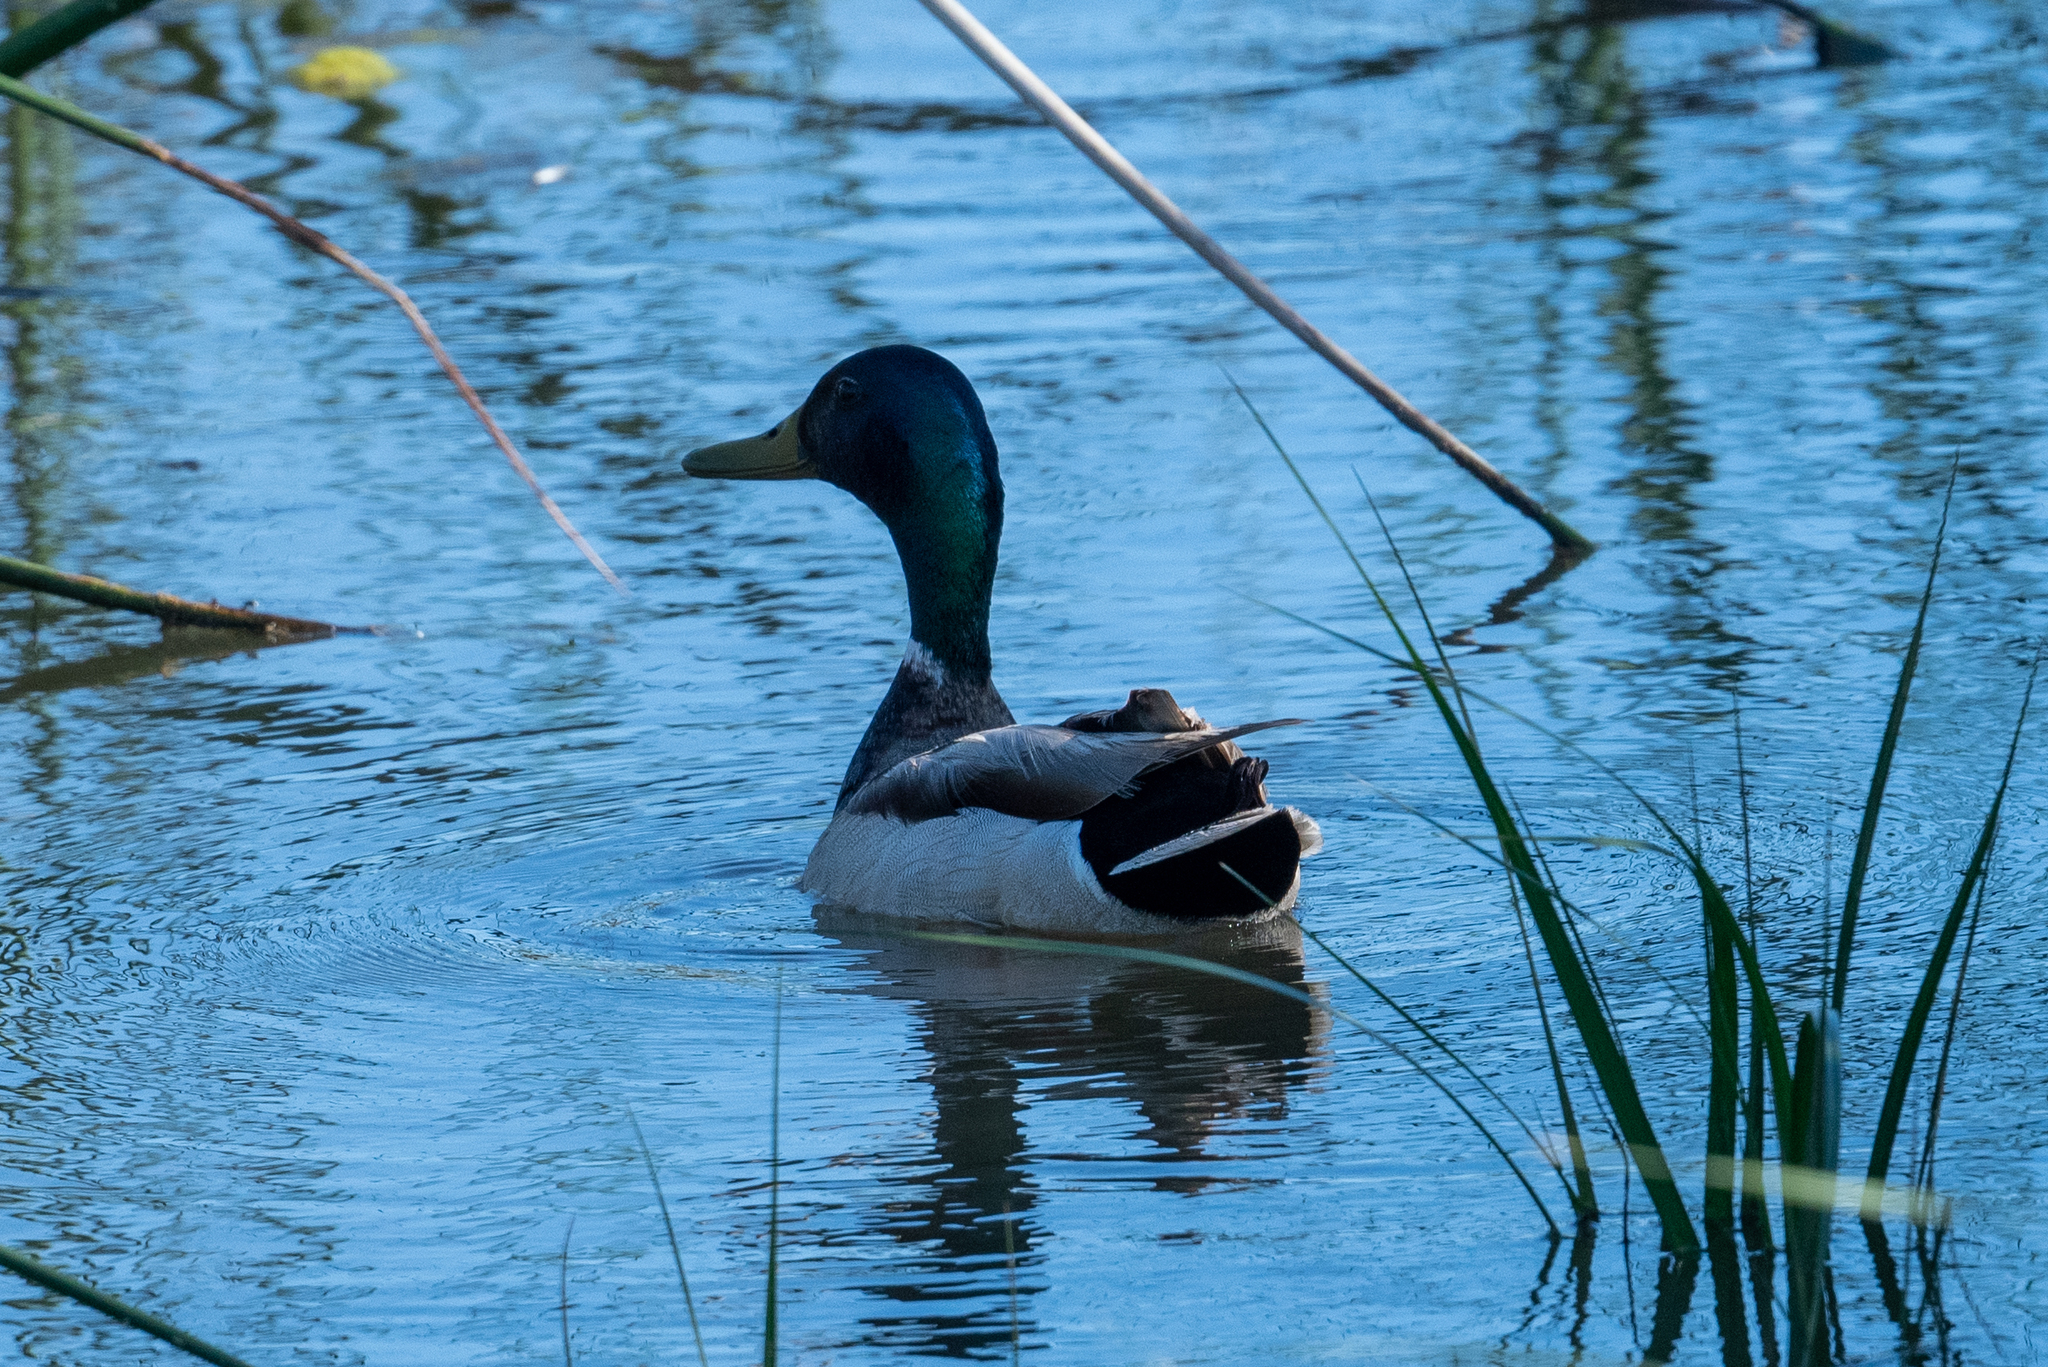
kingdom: Animalia
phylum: Chordata
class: Aves
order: Anseriformes
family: Anatidae
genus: Anas
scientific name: Anas platyrhynchos
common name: Mallard
